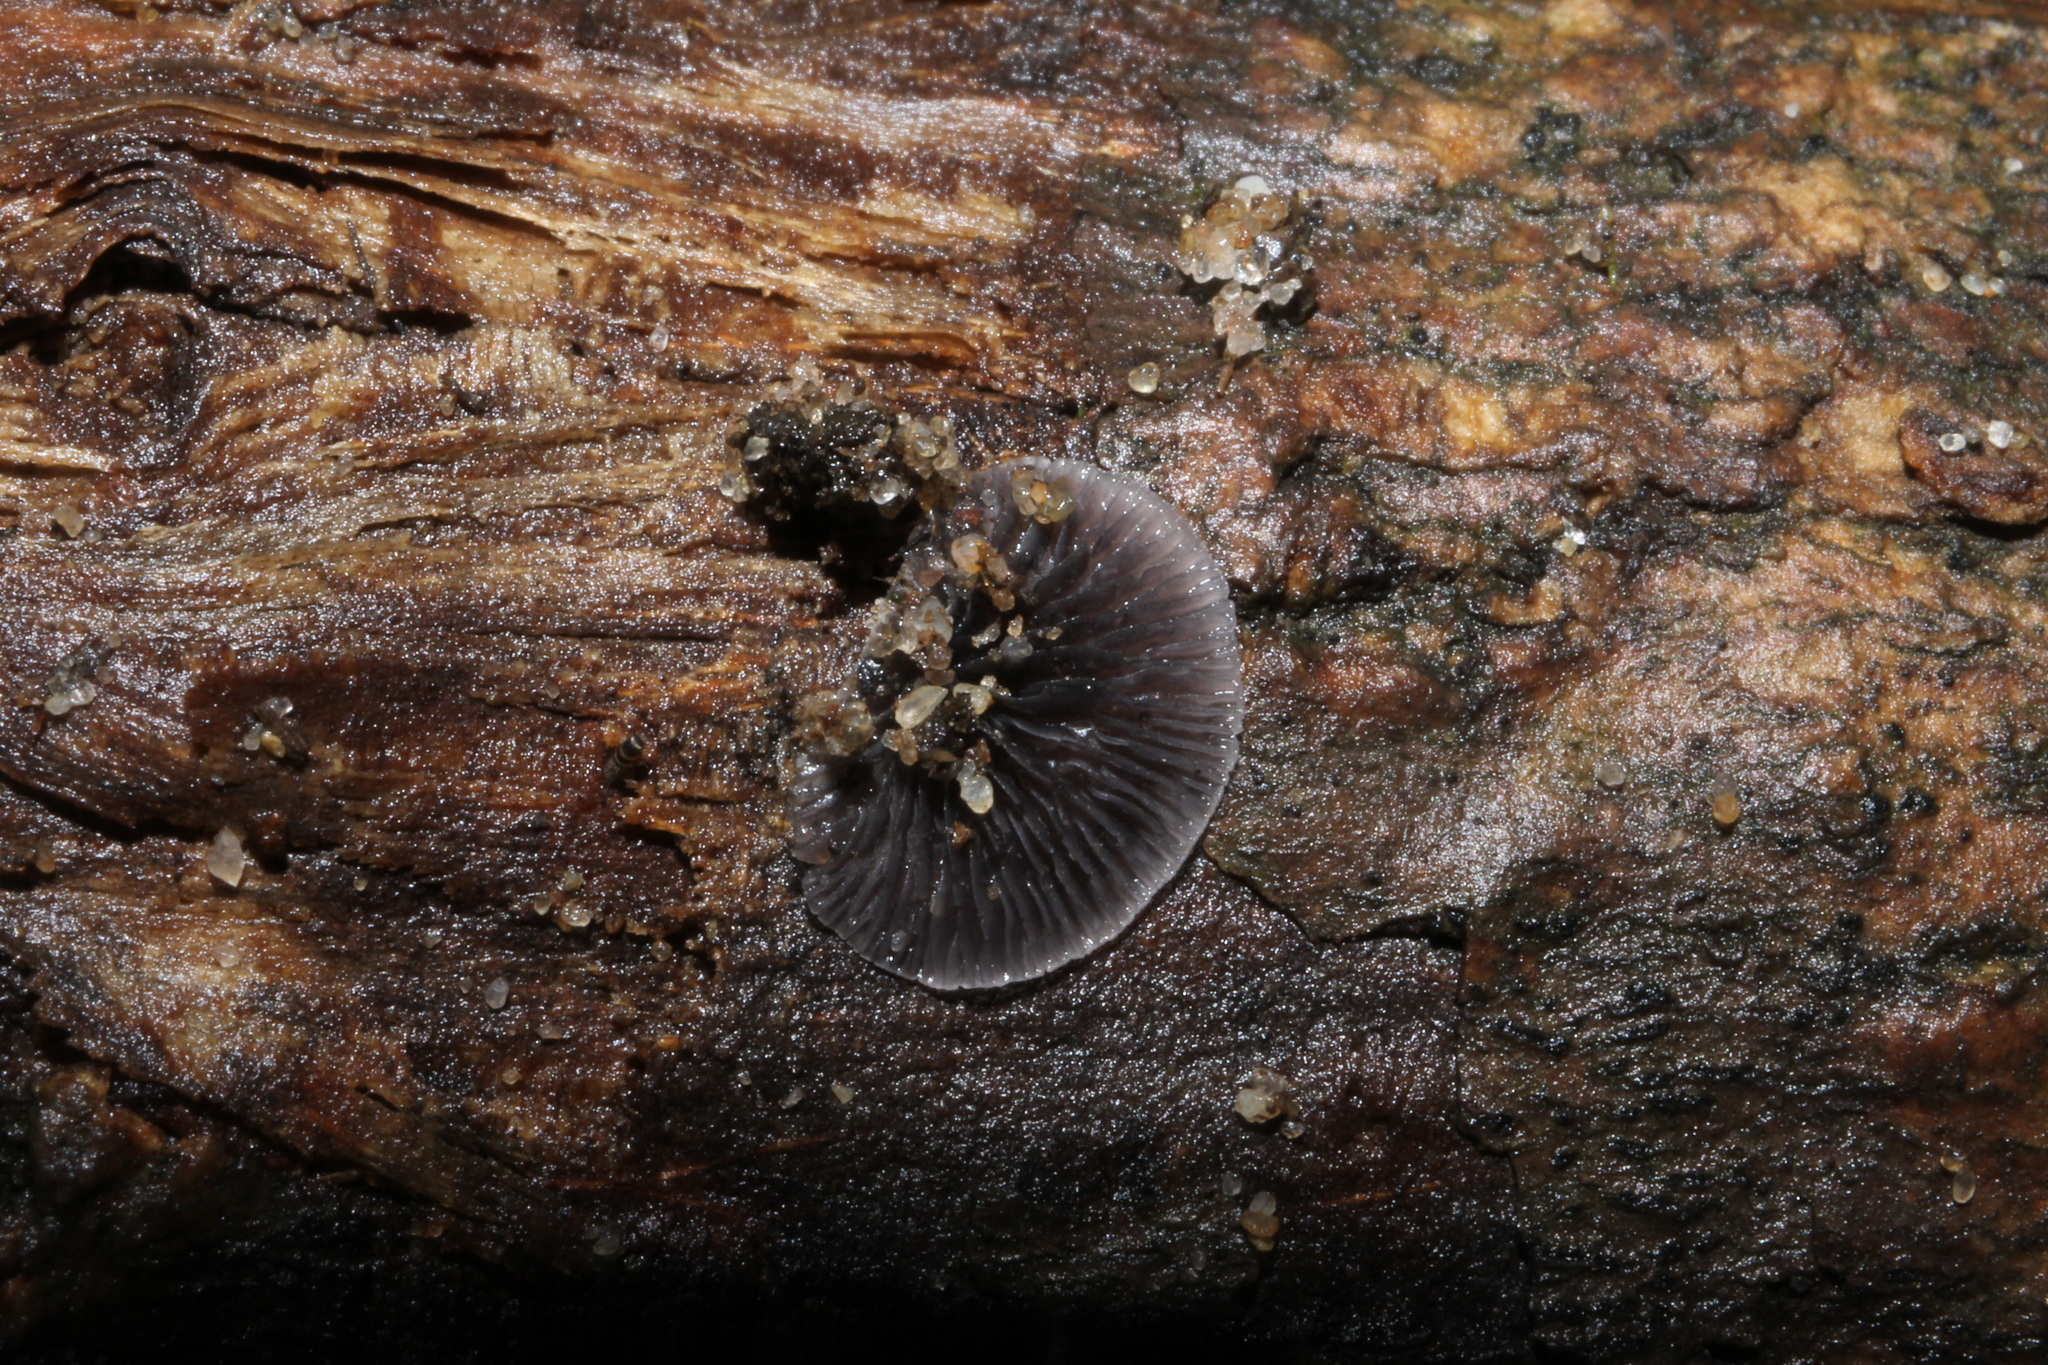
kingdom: Fungi
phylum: Basidiomycota
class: Agaricomycetes
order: Agaricales
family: Pleurotaceae
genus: Resupinatus
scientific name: Resupinatus applicatus
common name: Smoked oysterling
